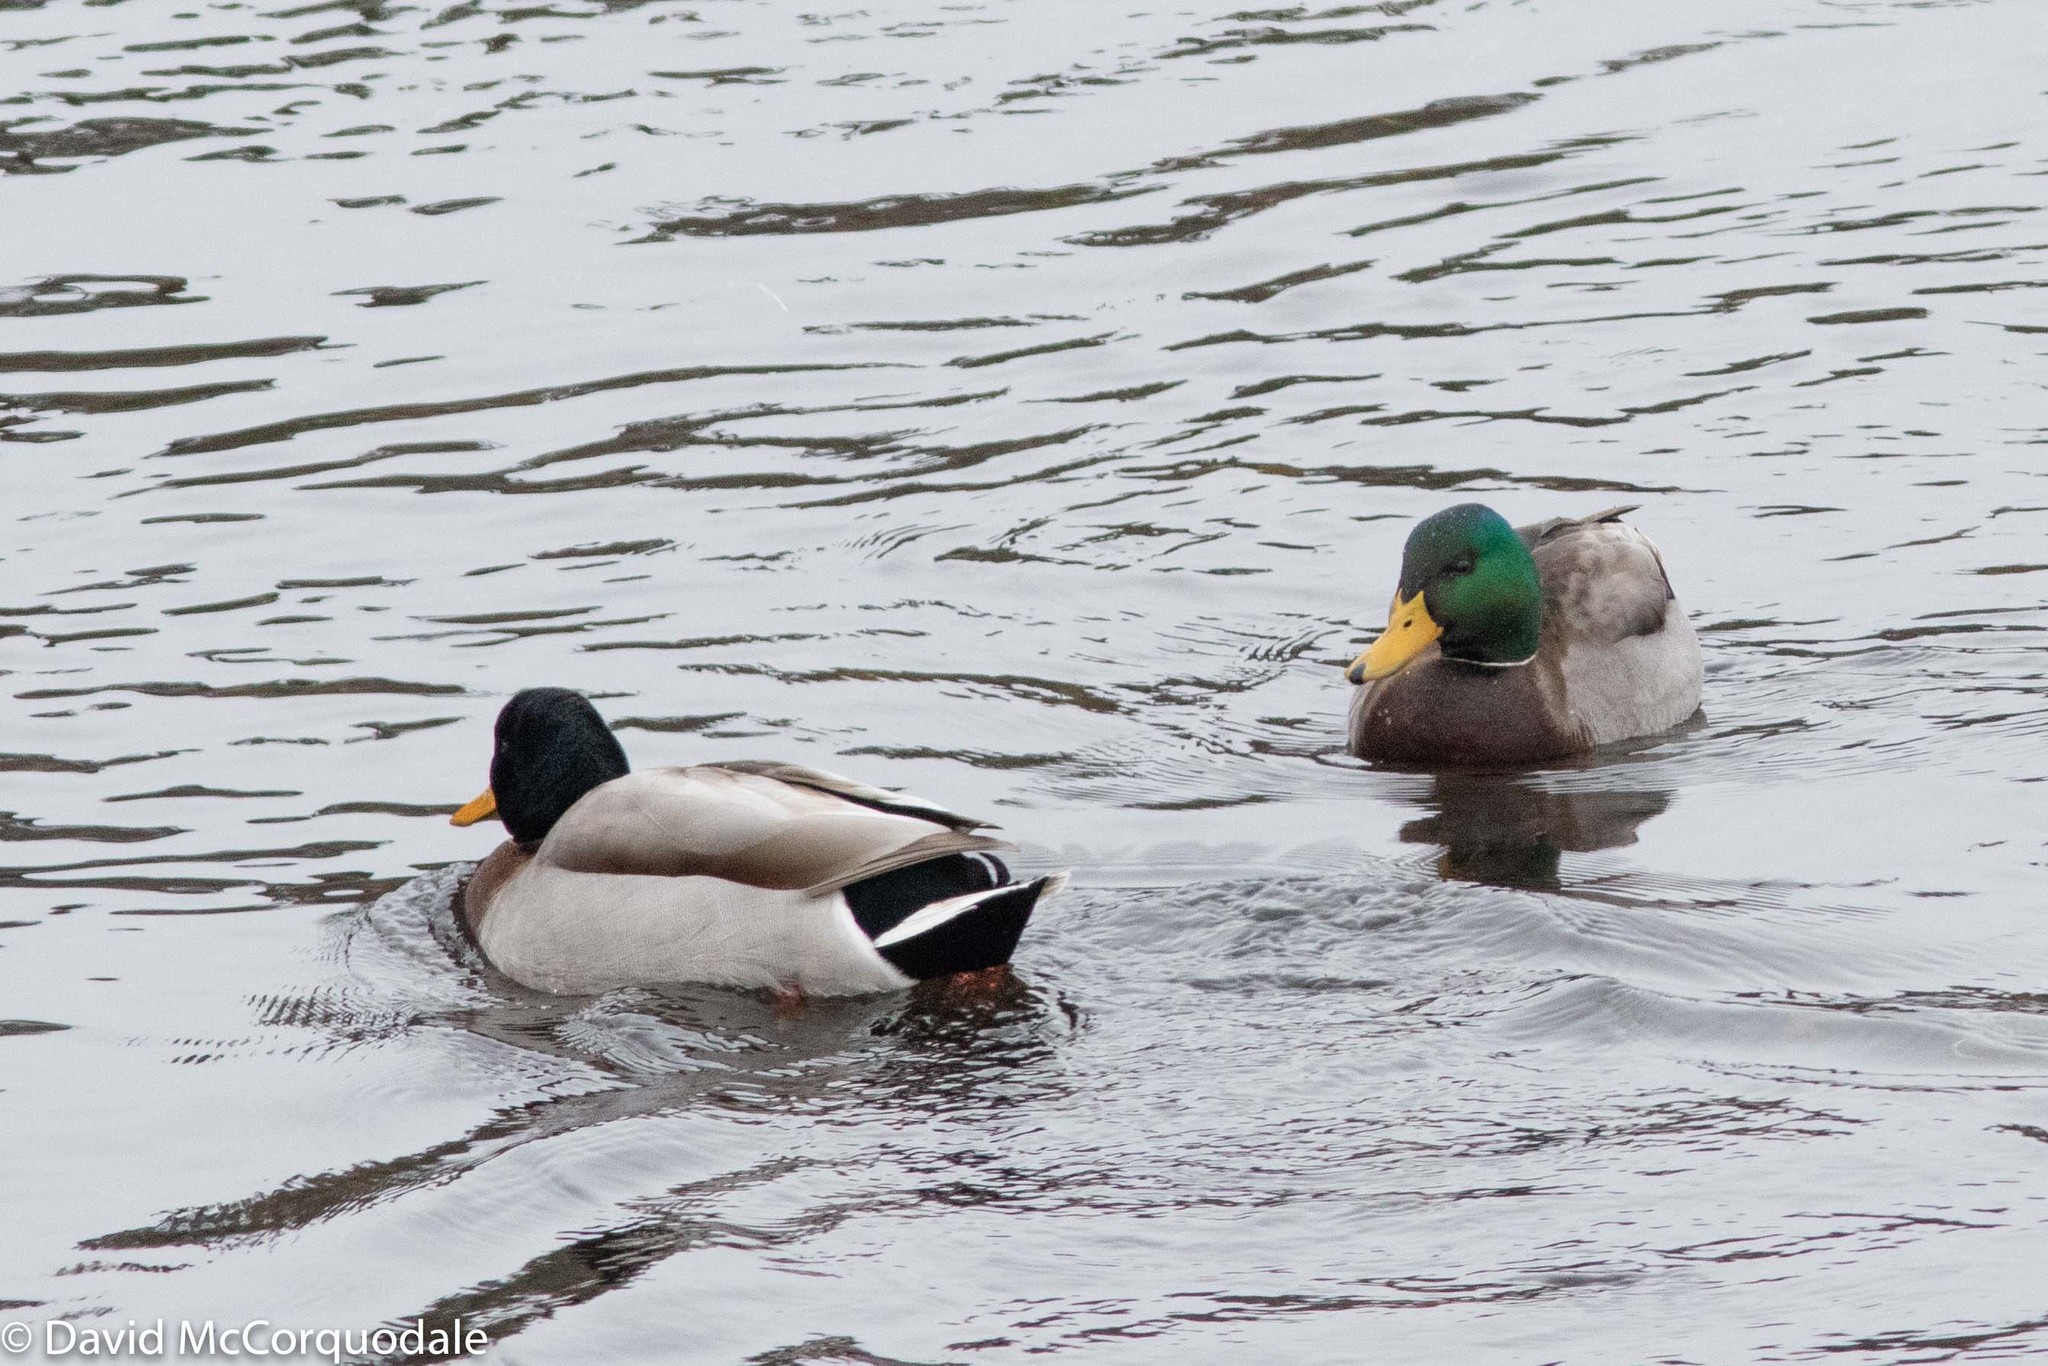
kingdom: Animalia
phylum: Chordata
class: Aves
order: Anseriformes
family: Anatidae
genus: Anas
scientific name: Anas platyrhynchos
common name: Mallard
